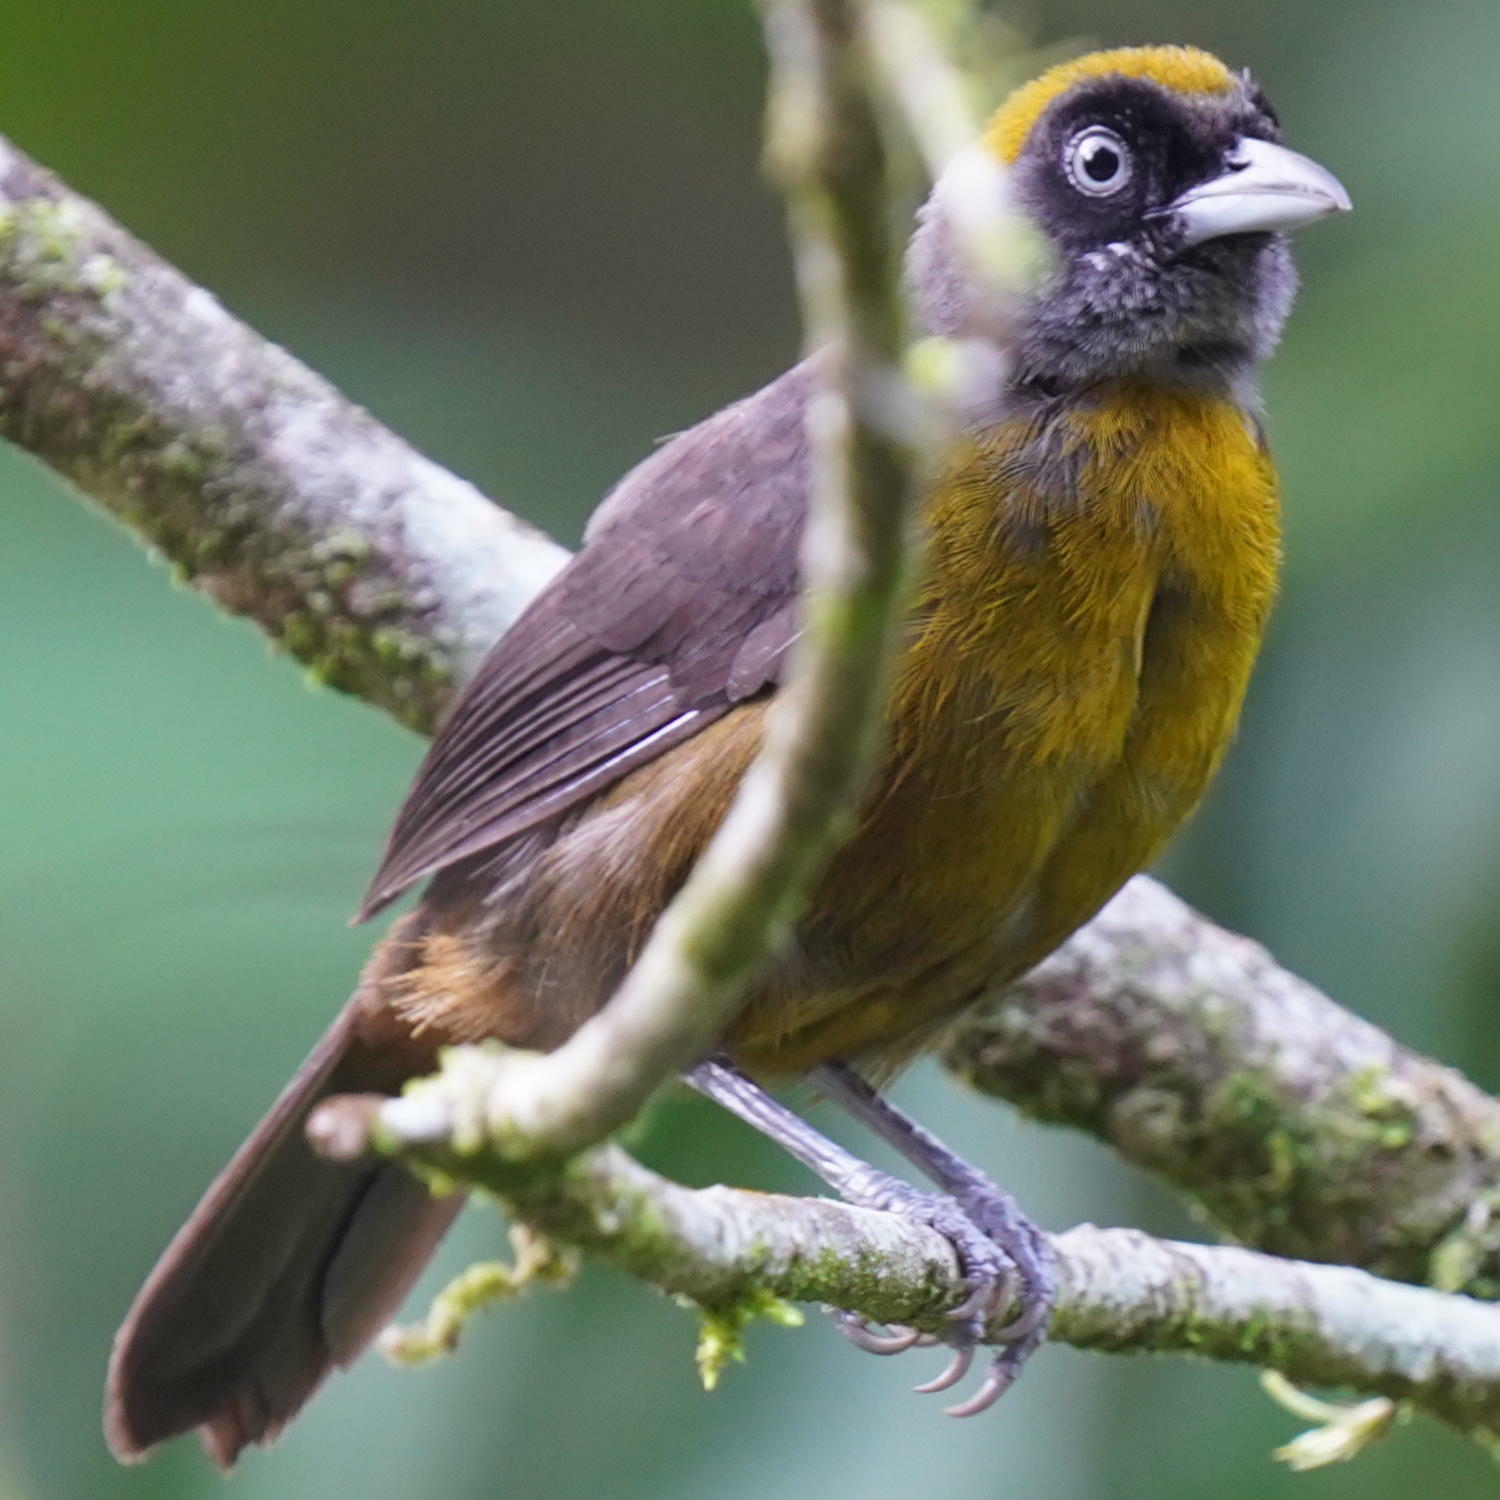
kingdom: Animalia
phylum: Chordata
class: Aves
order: Passeriformes
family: Mitrospingidae
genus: Mitrospingus
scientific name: Mitrospingus cassinii
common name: Dusky-faced tanager
